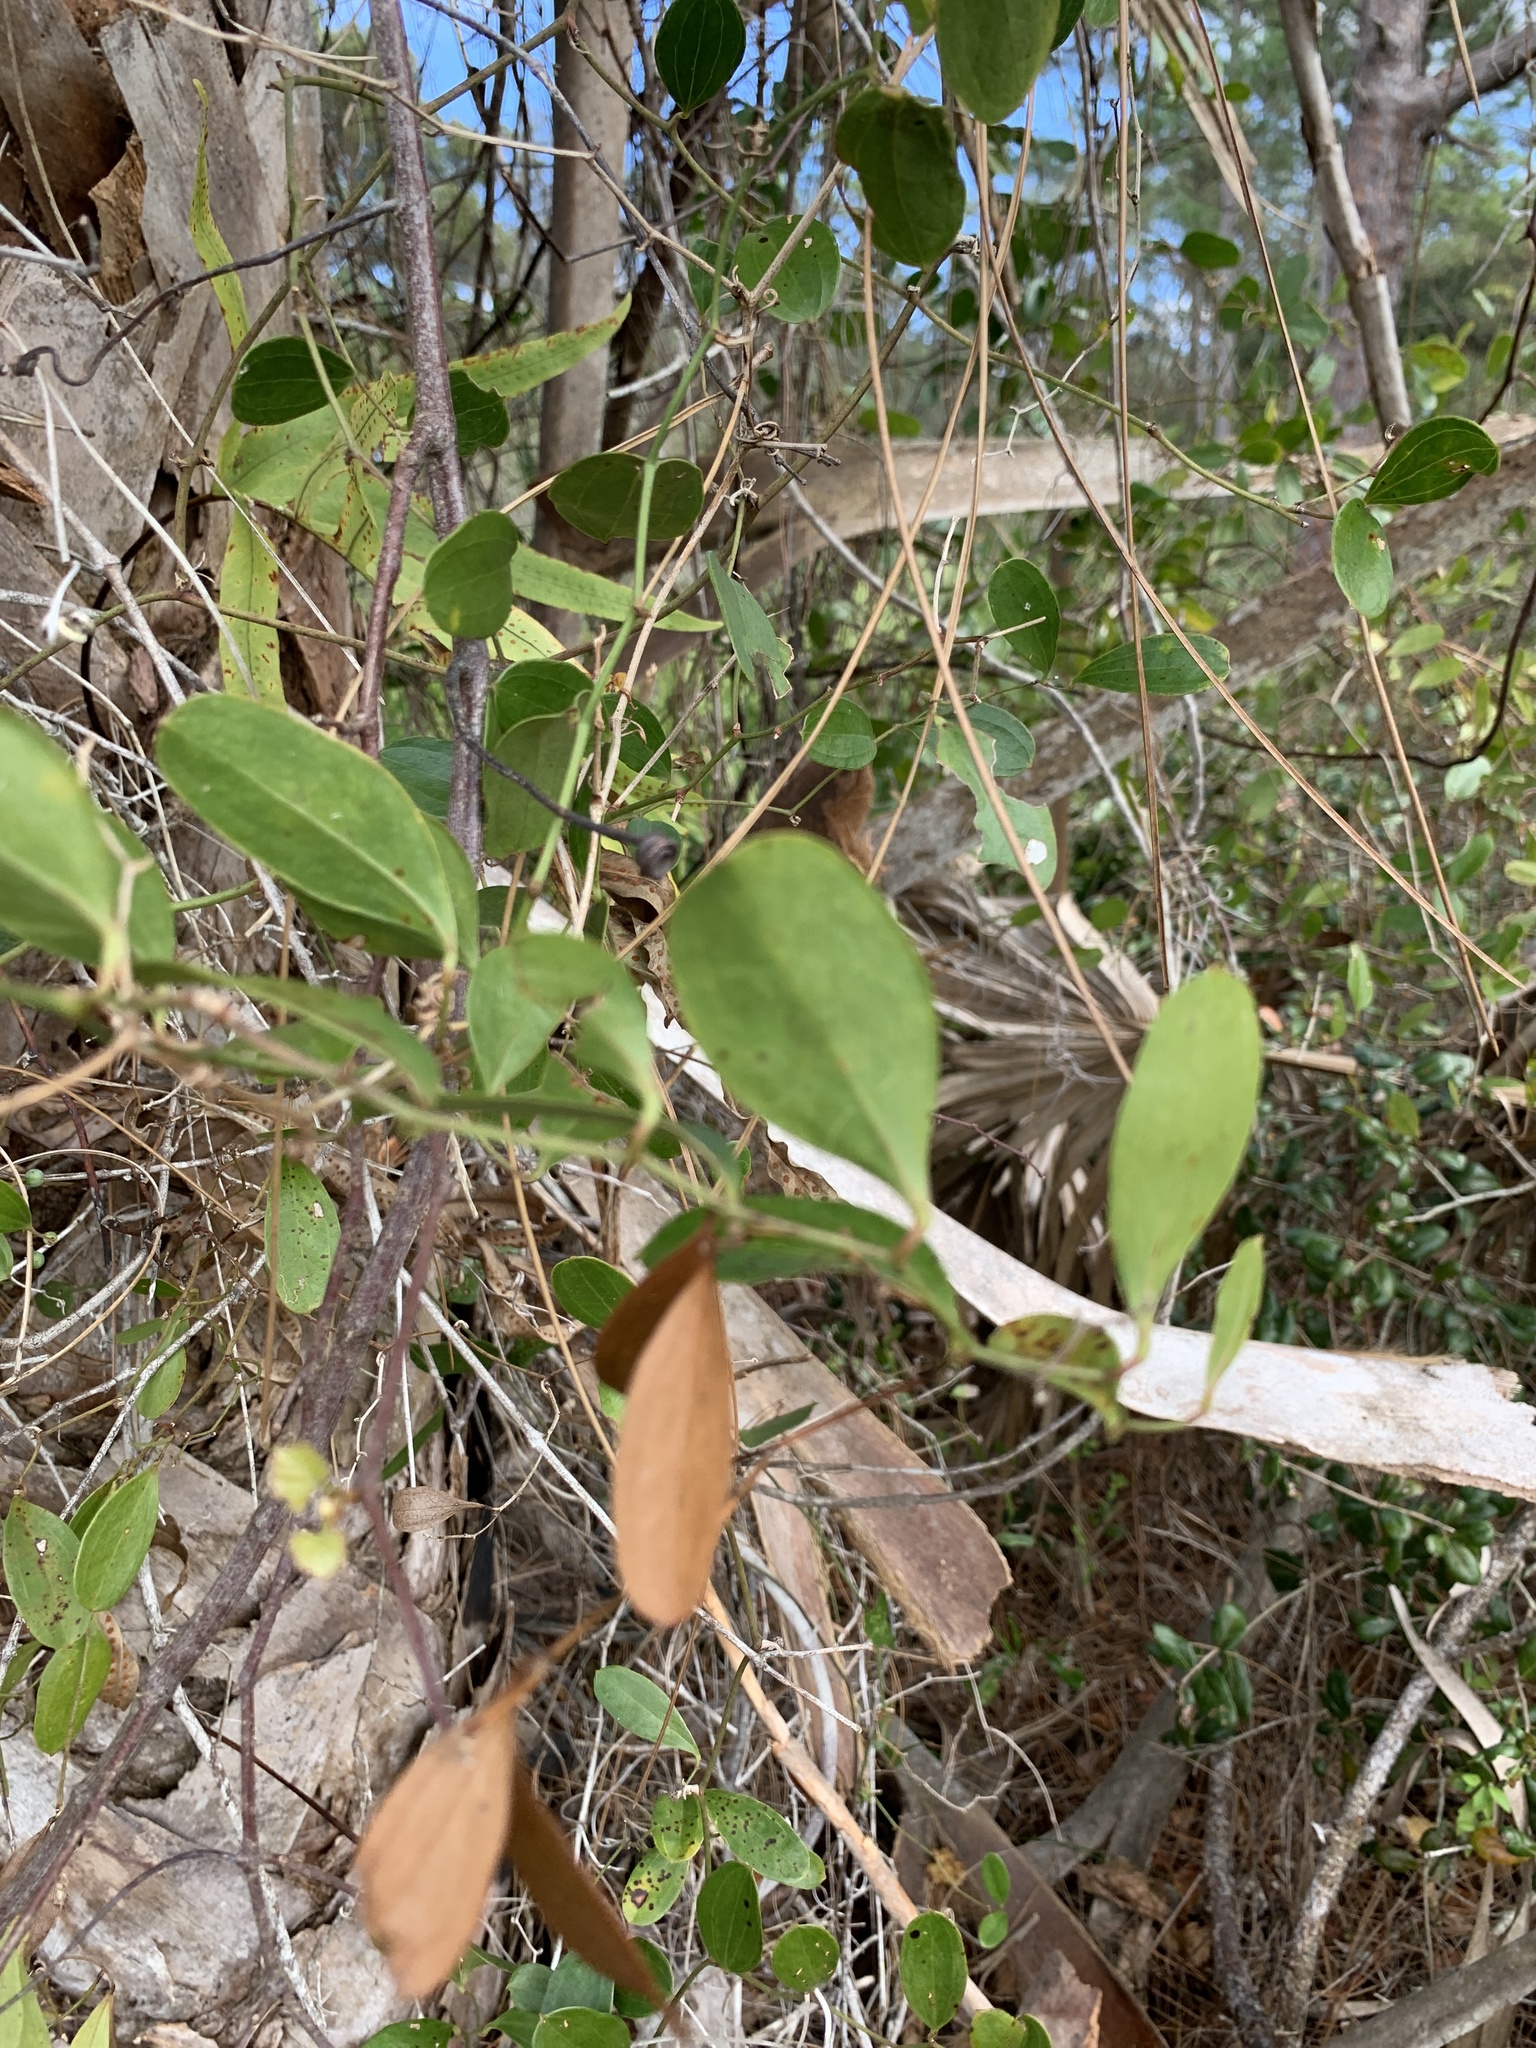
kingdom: Plantae
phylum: Tracheophyta
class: Liliopsida
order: Liliales
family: Smilacaceae
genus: Smilax
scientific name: Smilax auriculata
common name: Wild bamboo
